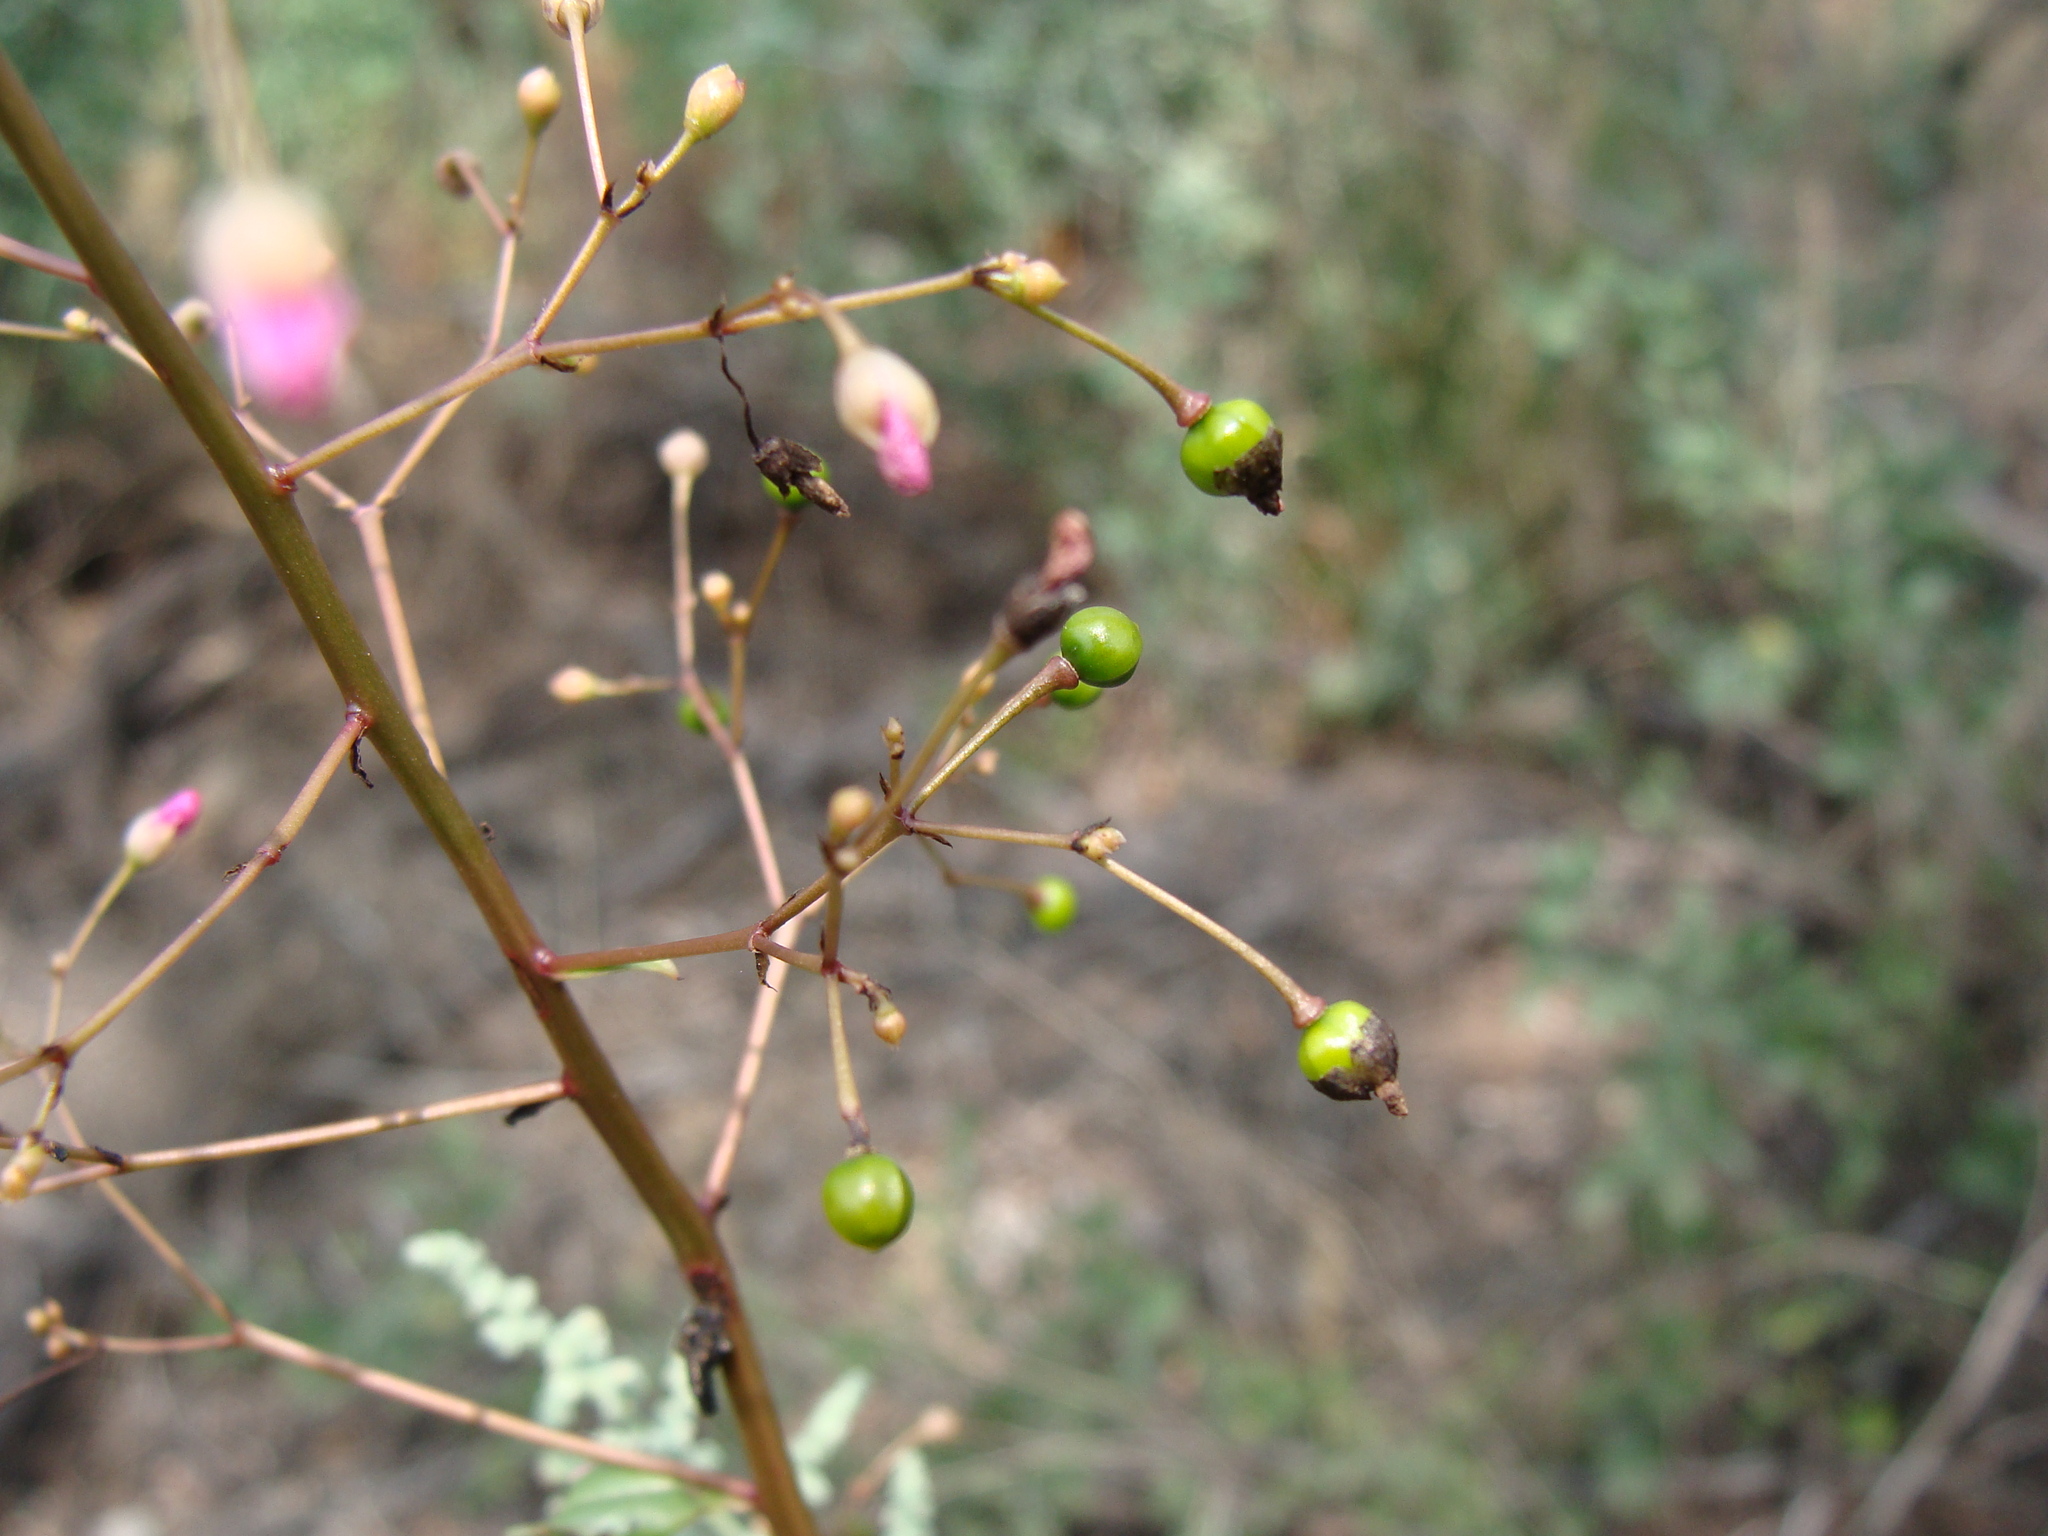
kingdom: Plantae
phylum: Tracheophyta
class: Magnoliopsida
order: Caryophyllales
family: Talinaceae
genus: Talinum
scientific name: Talinum paniculatum
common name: Jewels of opar
